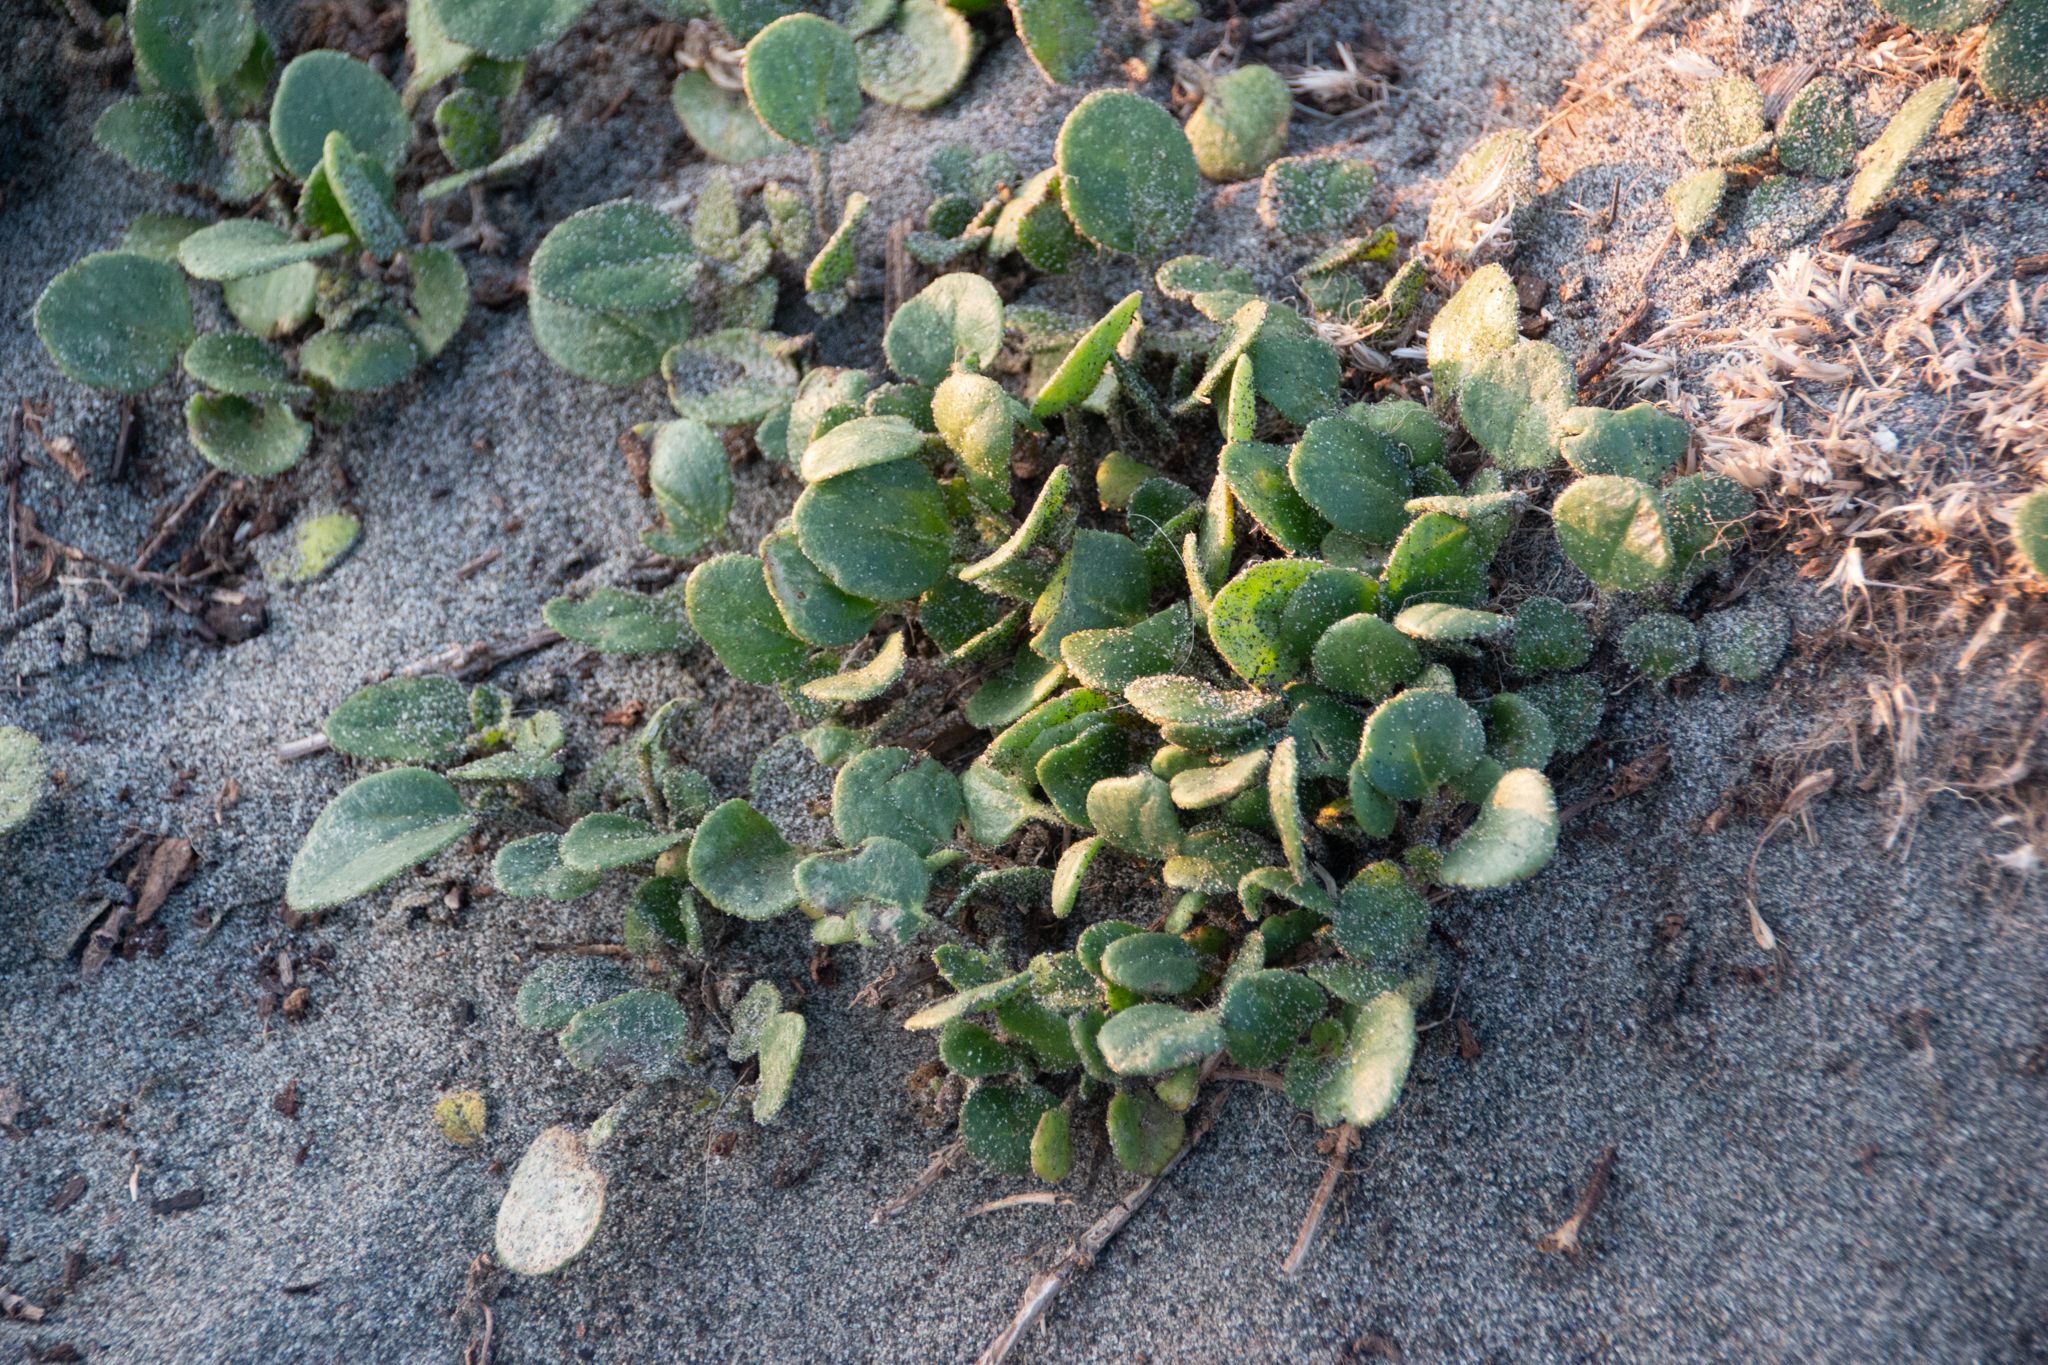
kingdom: Plantae
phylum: Tracheophyta
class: Magnoliopsida
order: Caryophyllales
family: Nyctaginaceae
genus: Abronia
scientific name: Abronia latifolia
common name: Yellow sand-verbena
